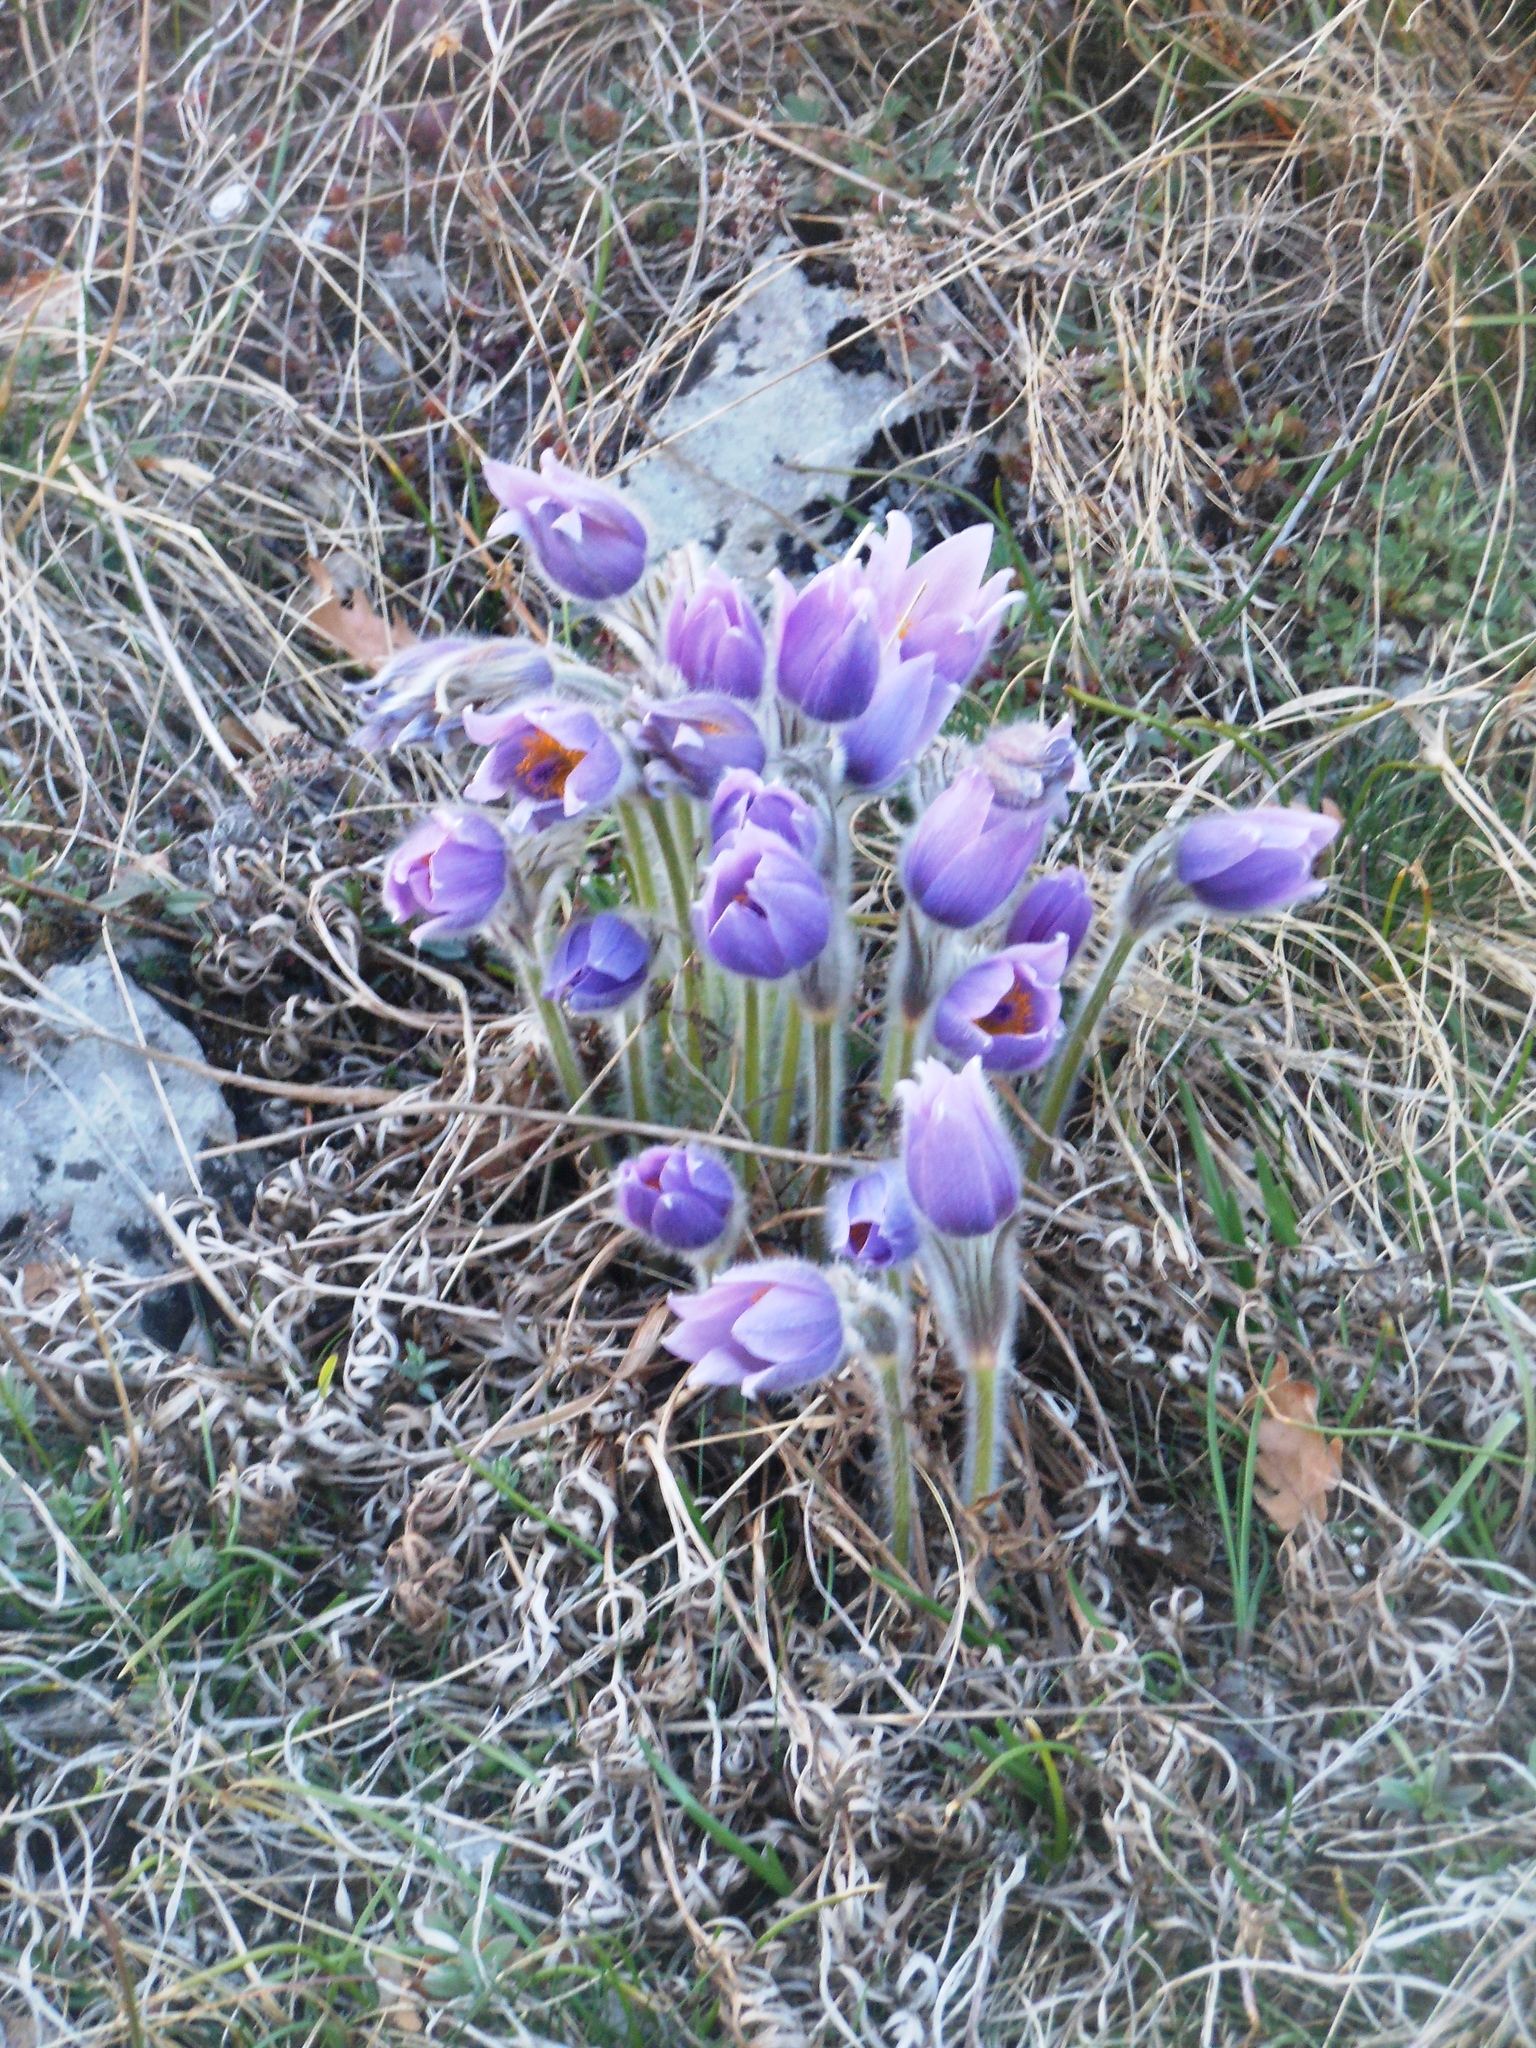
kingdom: Plantae
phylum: Tracheophyta
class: Magnoliopsida
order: Ranunculales
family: Ranunculaceae
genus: Pulsatilla
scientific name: Pulsatilla grandis
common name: Greater pasque flower
